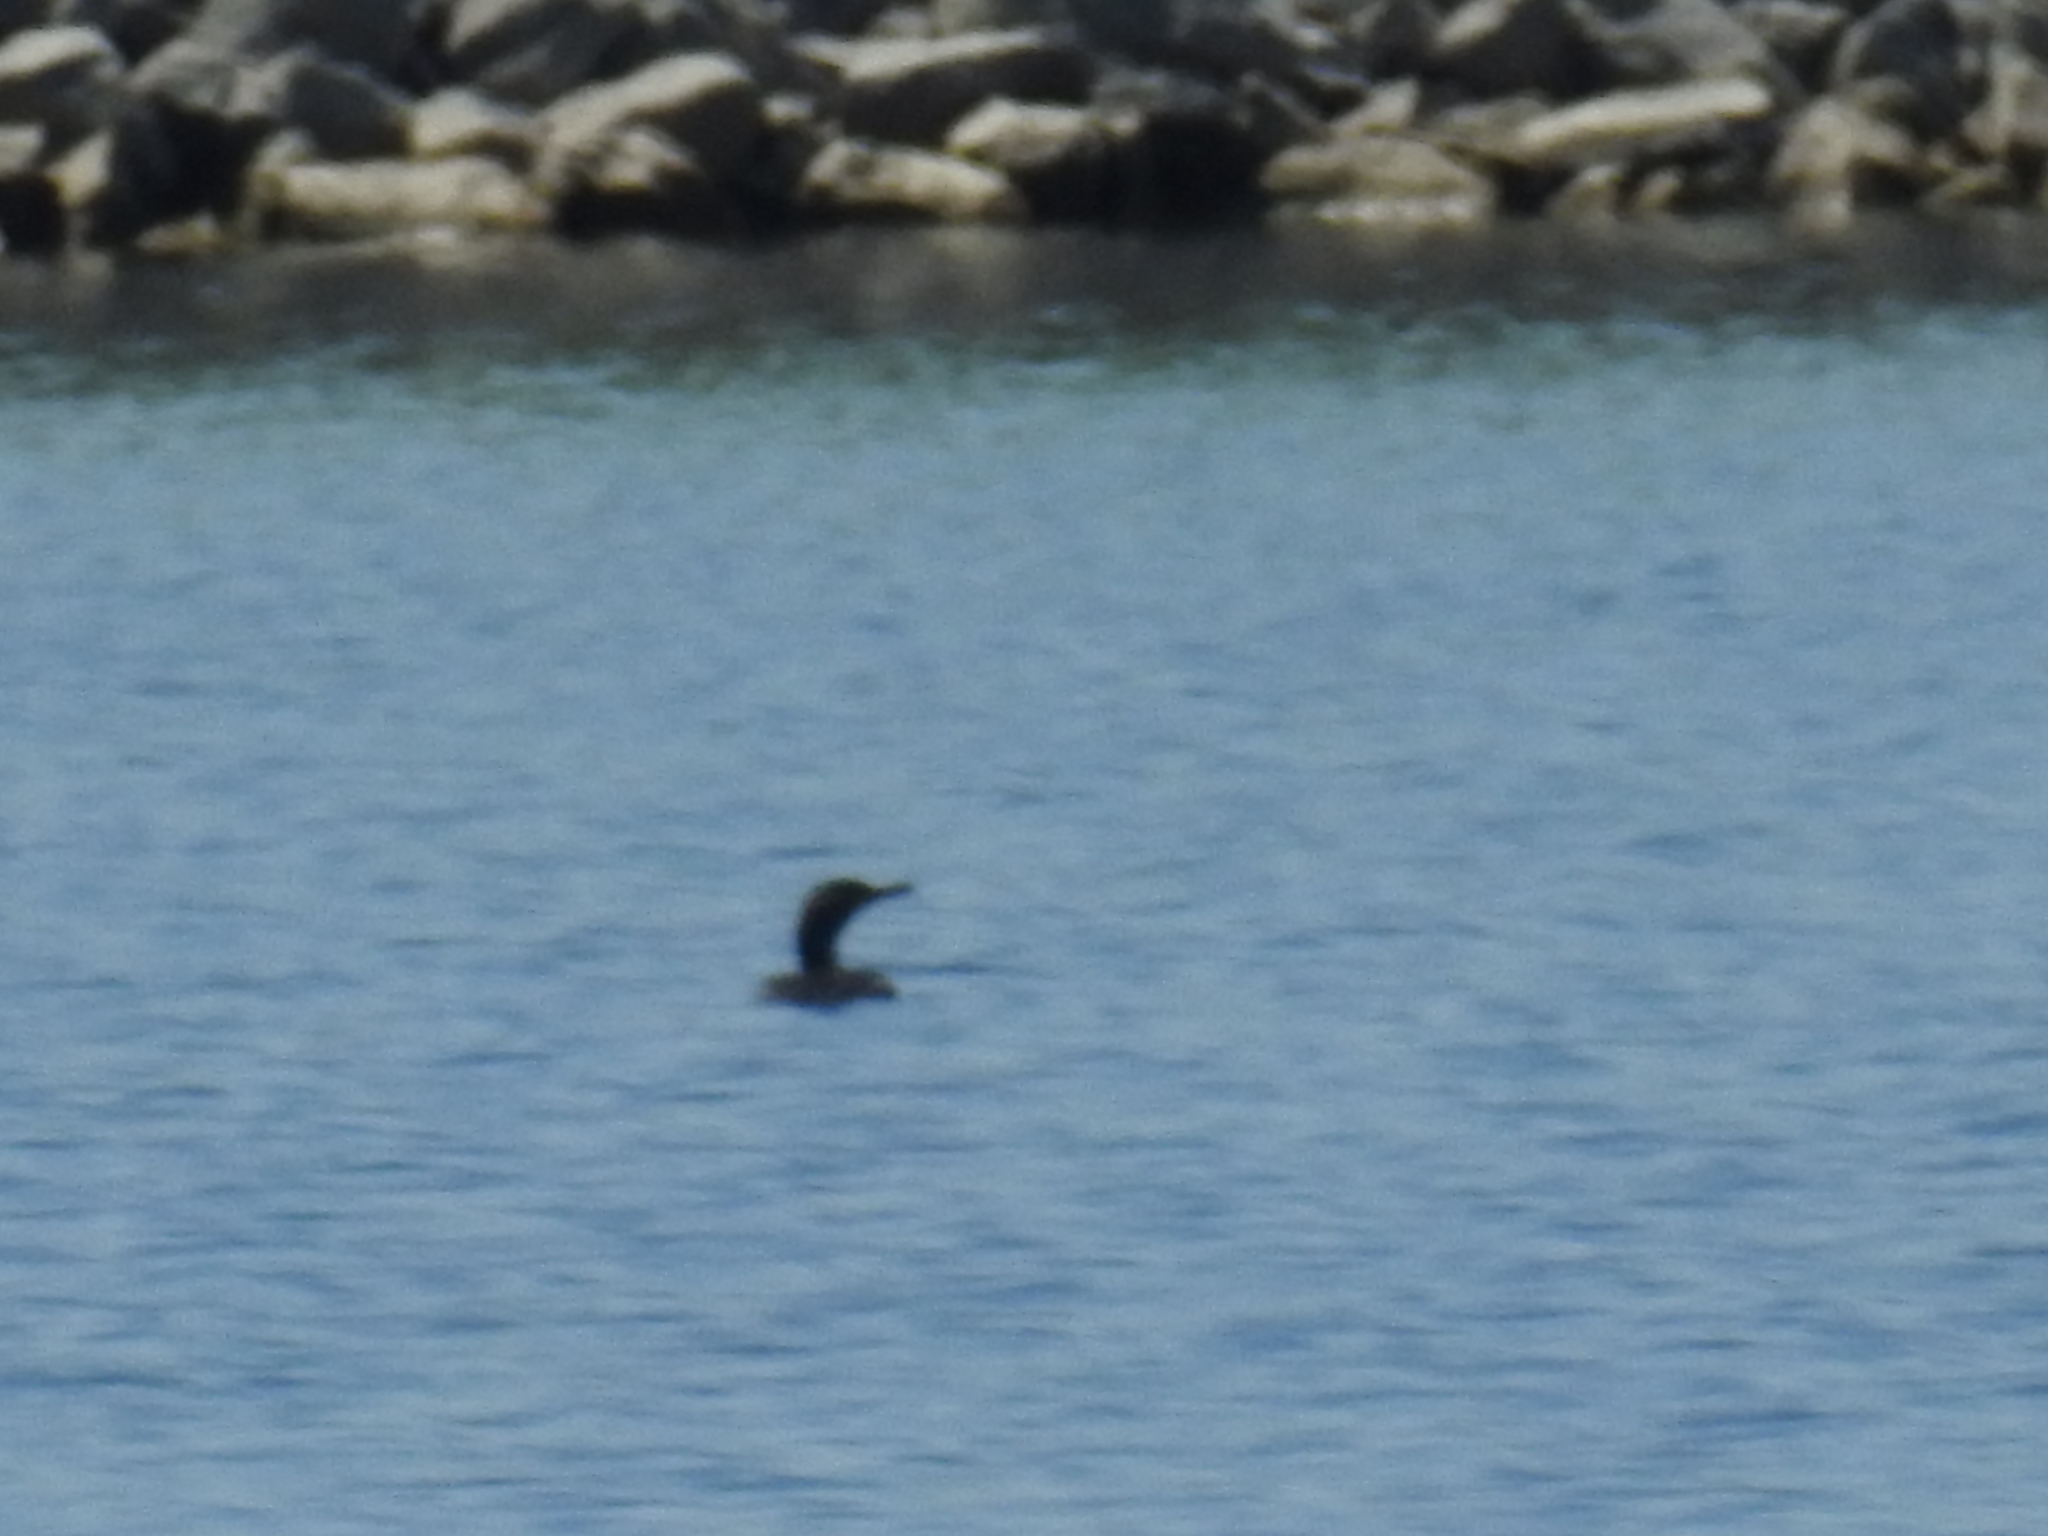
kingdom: Animalia
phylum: Chordata
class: Aves
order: Suliformes
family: Phalacrocoracidae
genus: Phalacrocorax
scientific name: Phalacrocorax auritus
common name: Double-crested cormorant
